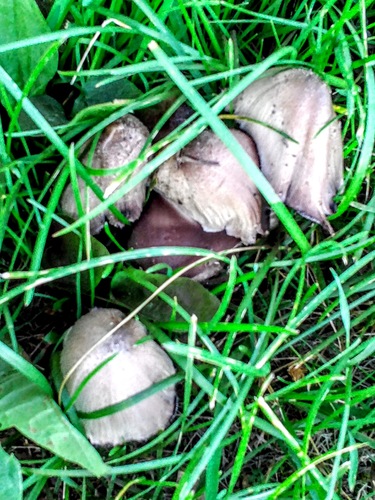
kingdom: Fungi
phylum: Basidiomycota
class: Agaricomycetes
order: Agaricales
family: Psathyrellaceae
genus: Coprinopsis
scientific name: Coprinopsis
